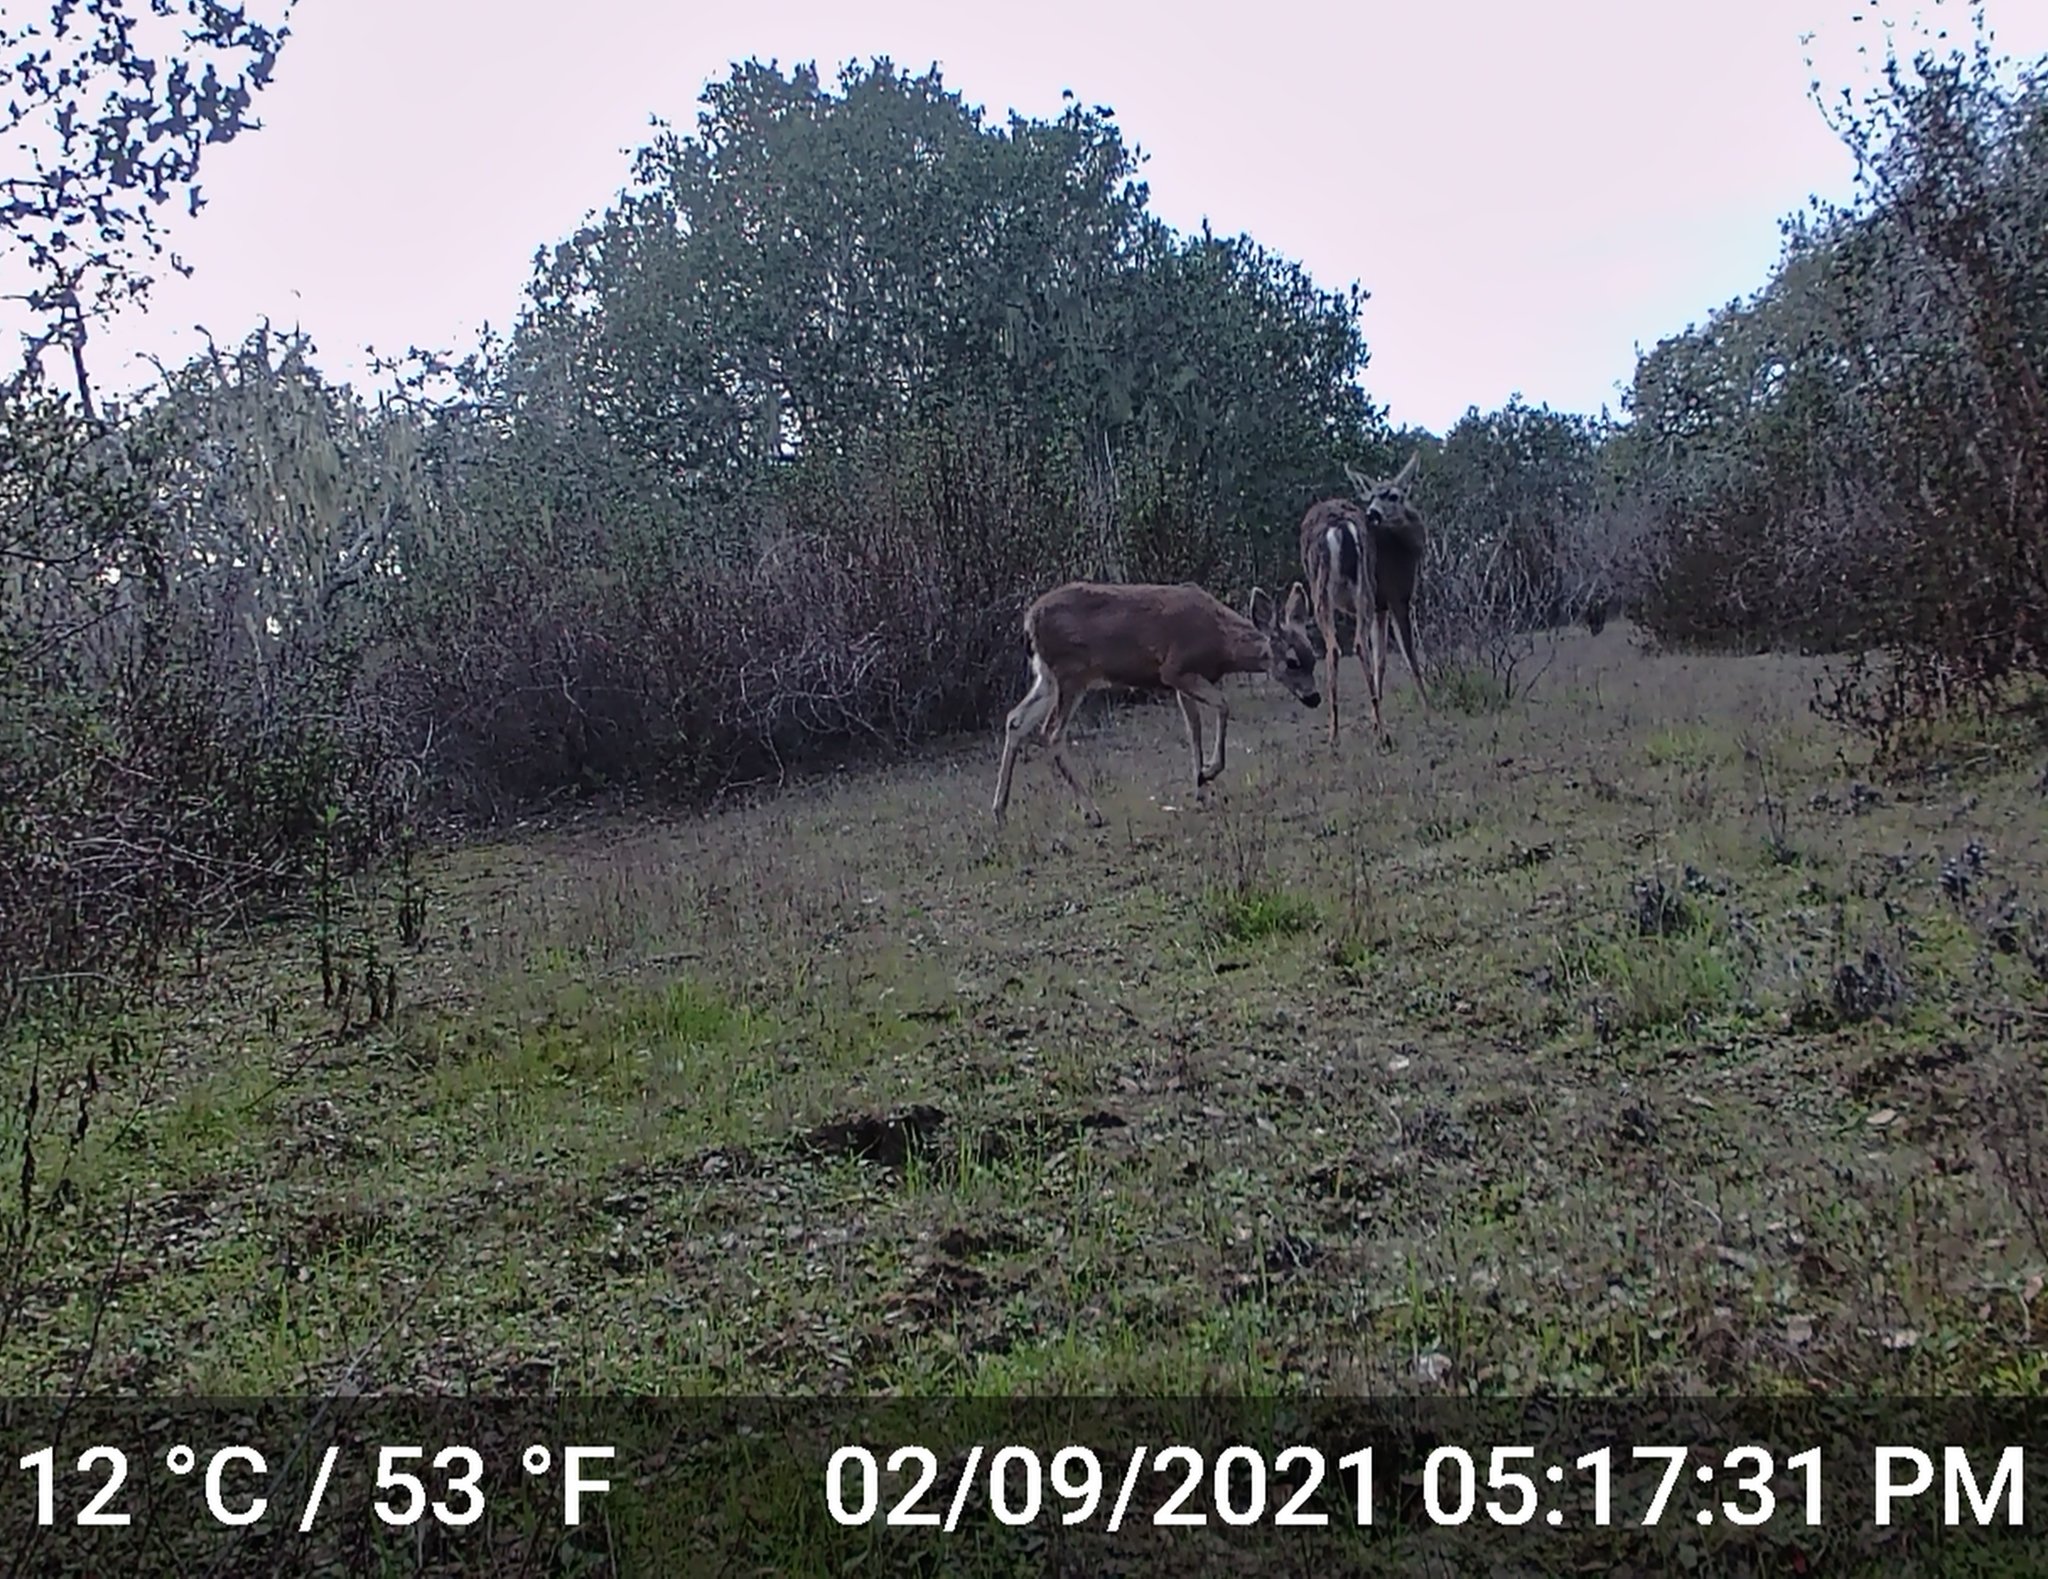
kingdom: Animalia
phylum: Chordata
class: Mammalia
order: Artiodactyla
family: Cervidae
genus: Odocoileus
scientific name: Odocoileus hemionus
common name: Mule deer
